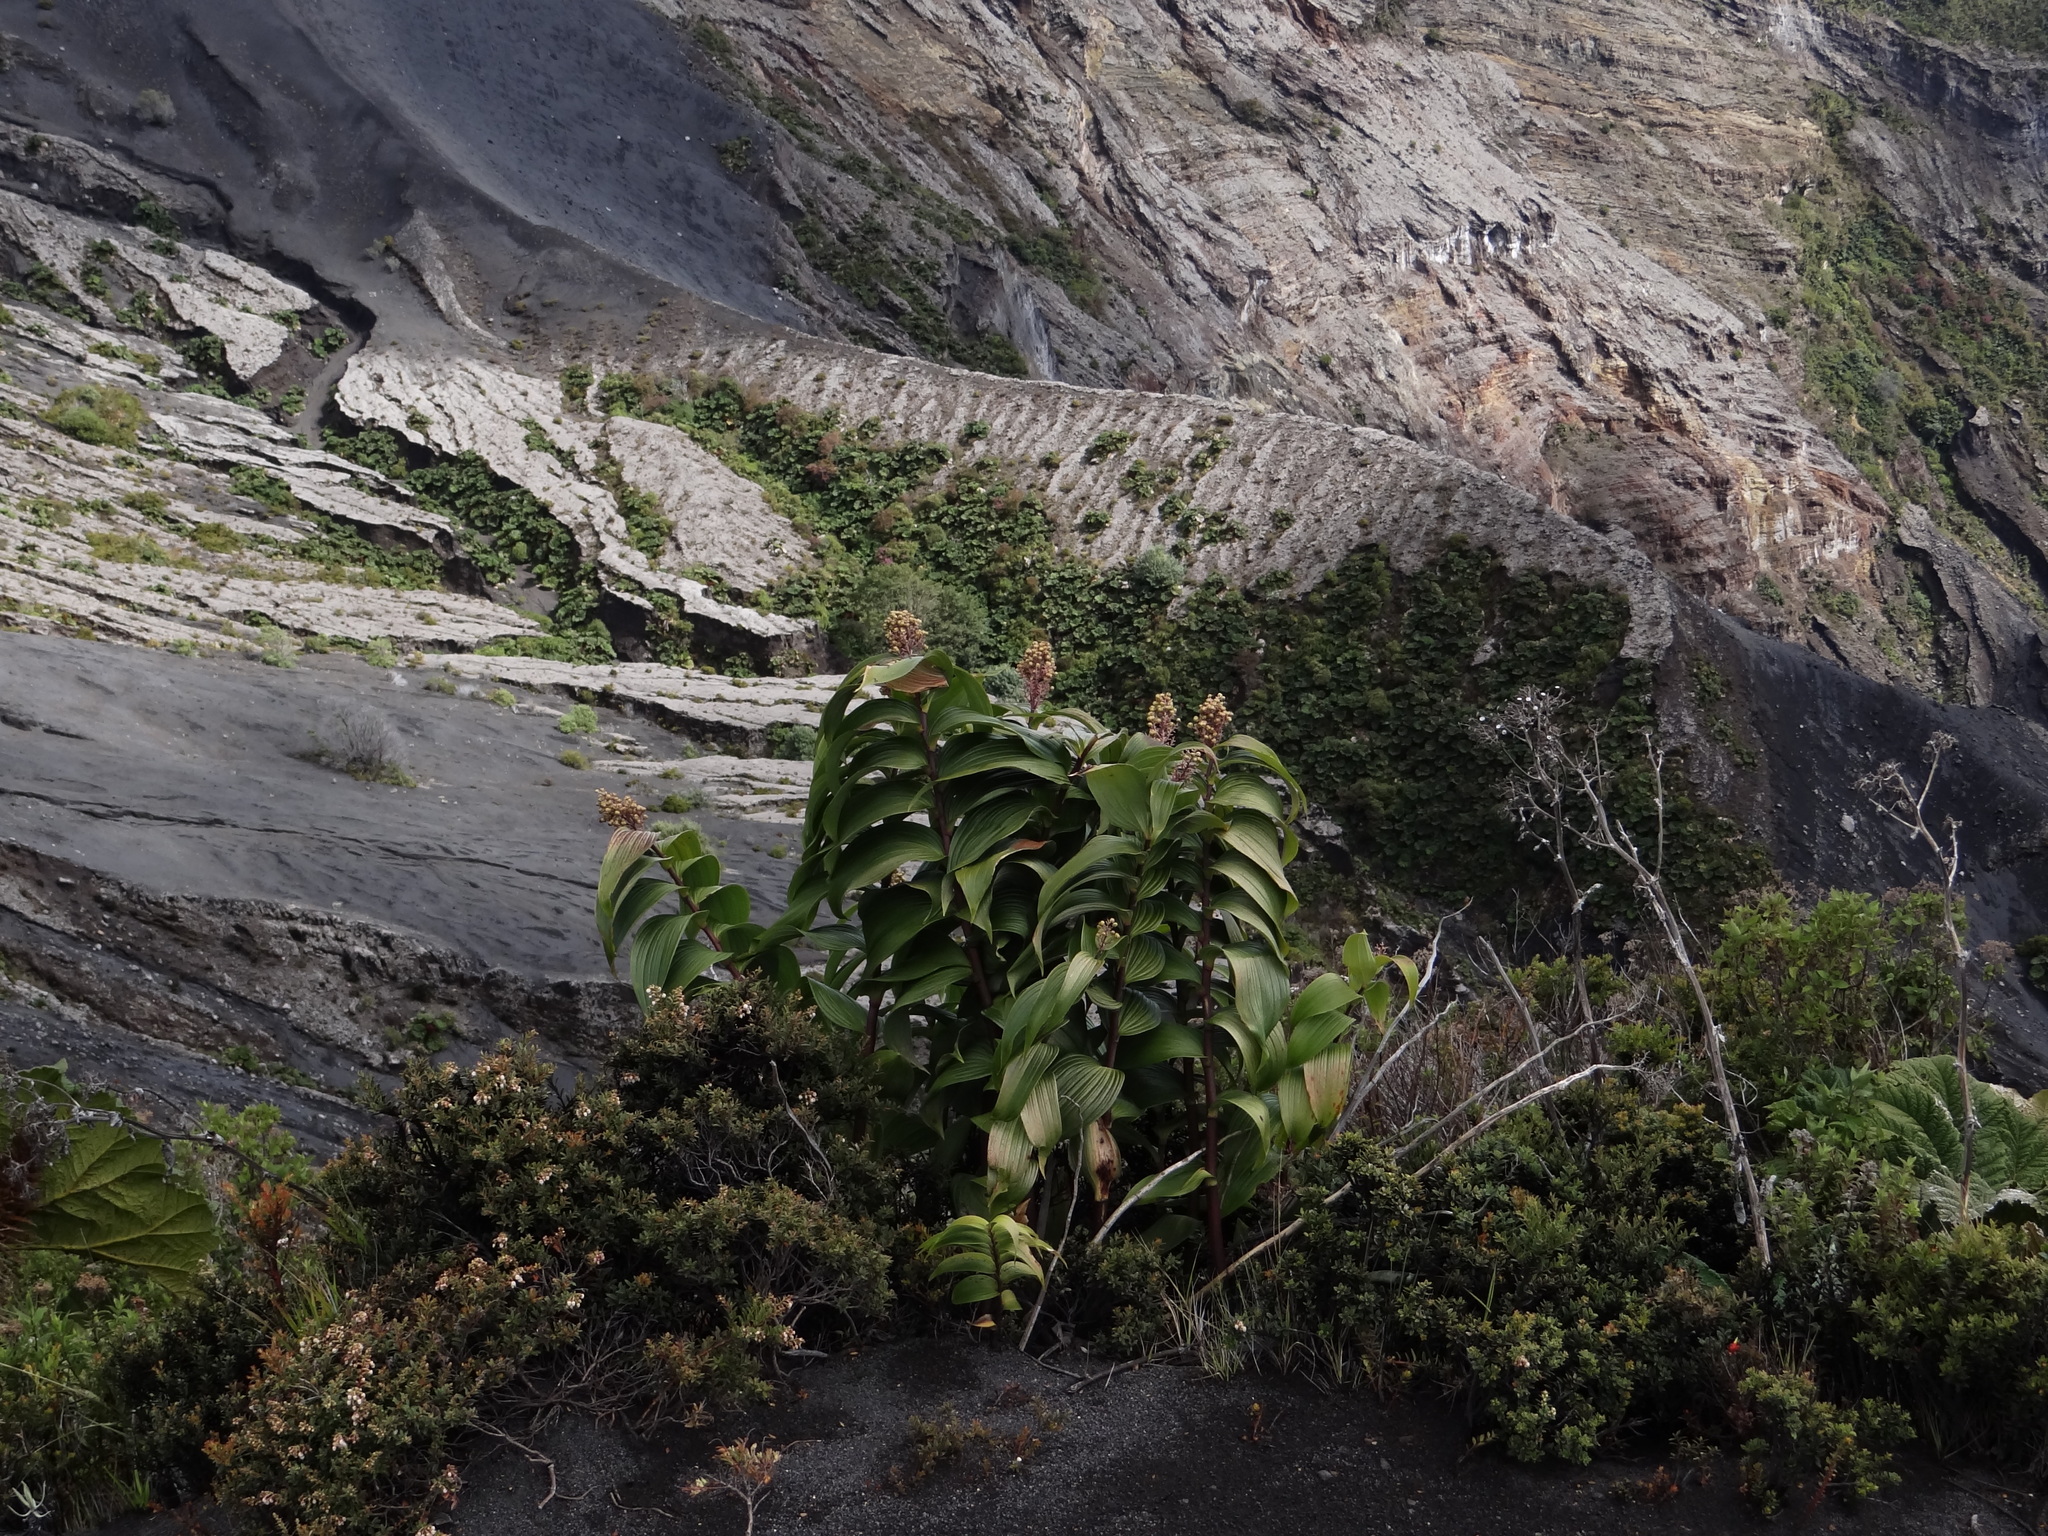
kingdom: Plantae
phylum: Tracheophyta
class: Liliopsida
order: Asparagales
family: Asparagaceae
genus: Maianthemum
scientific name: Maianthemum gigas
